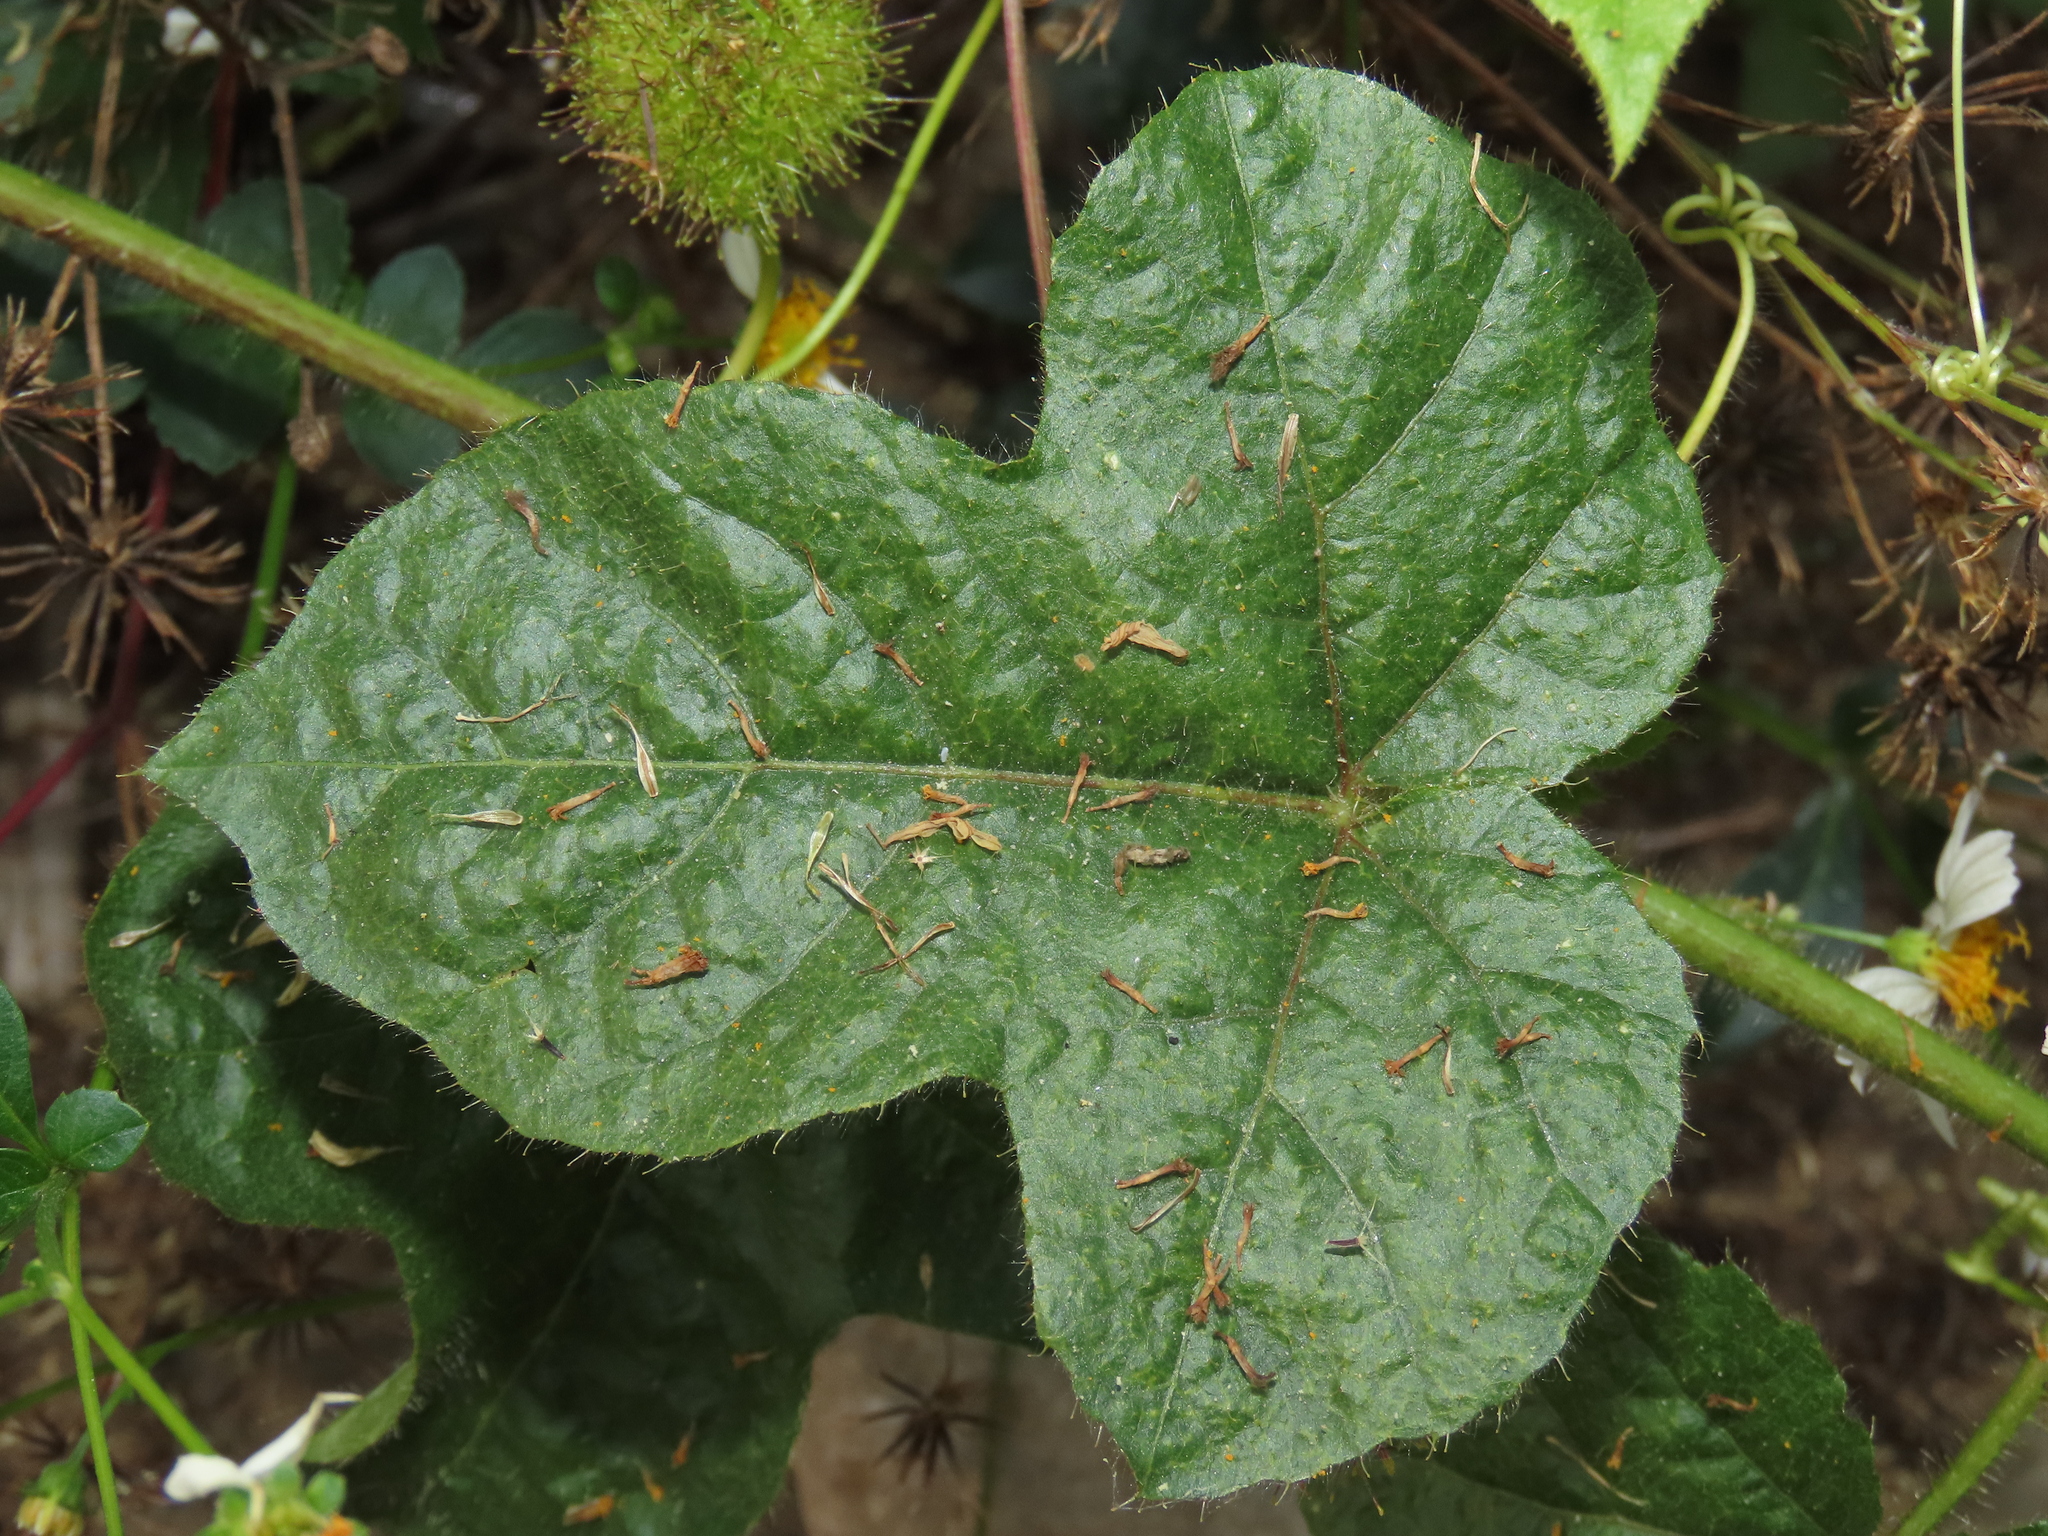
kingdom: Plantae
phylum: Tracheophyta
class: Magnoliopsida
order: Malpighiales
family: Passifloraceae
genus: Passiflora
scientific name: Passiflora vesicaria
